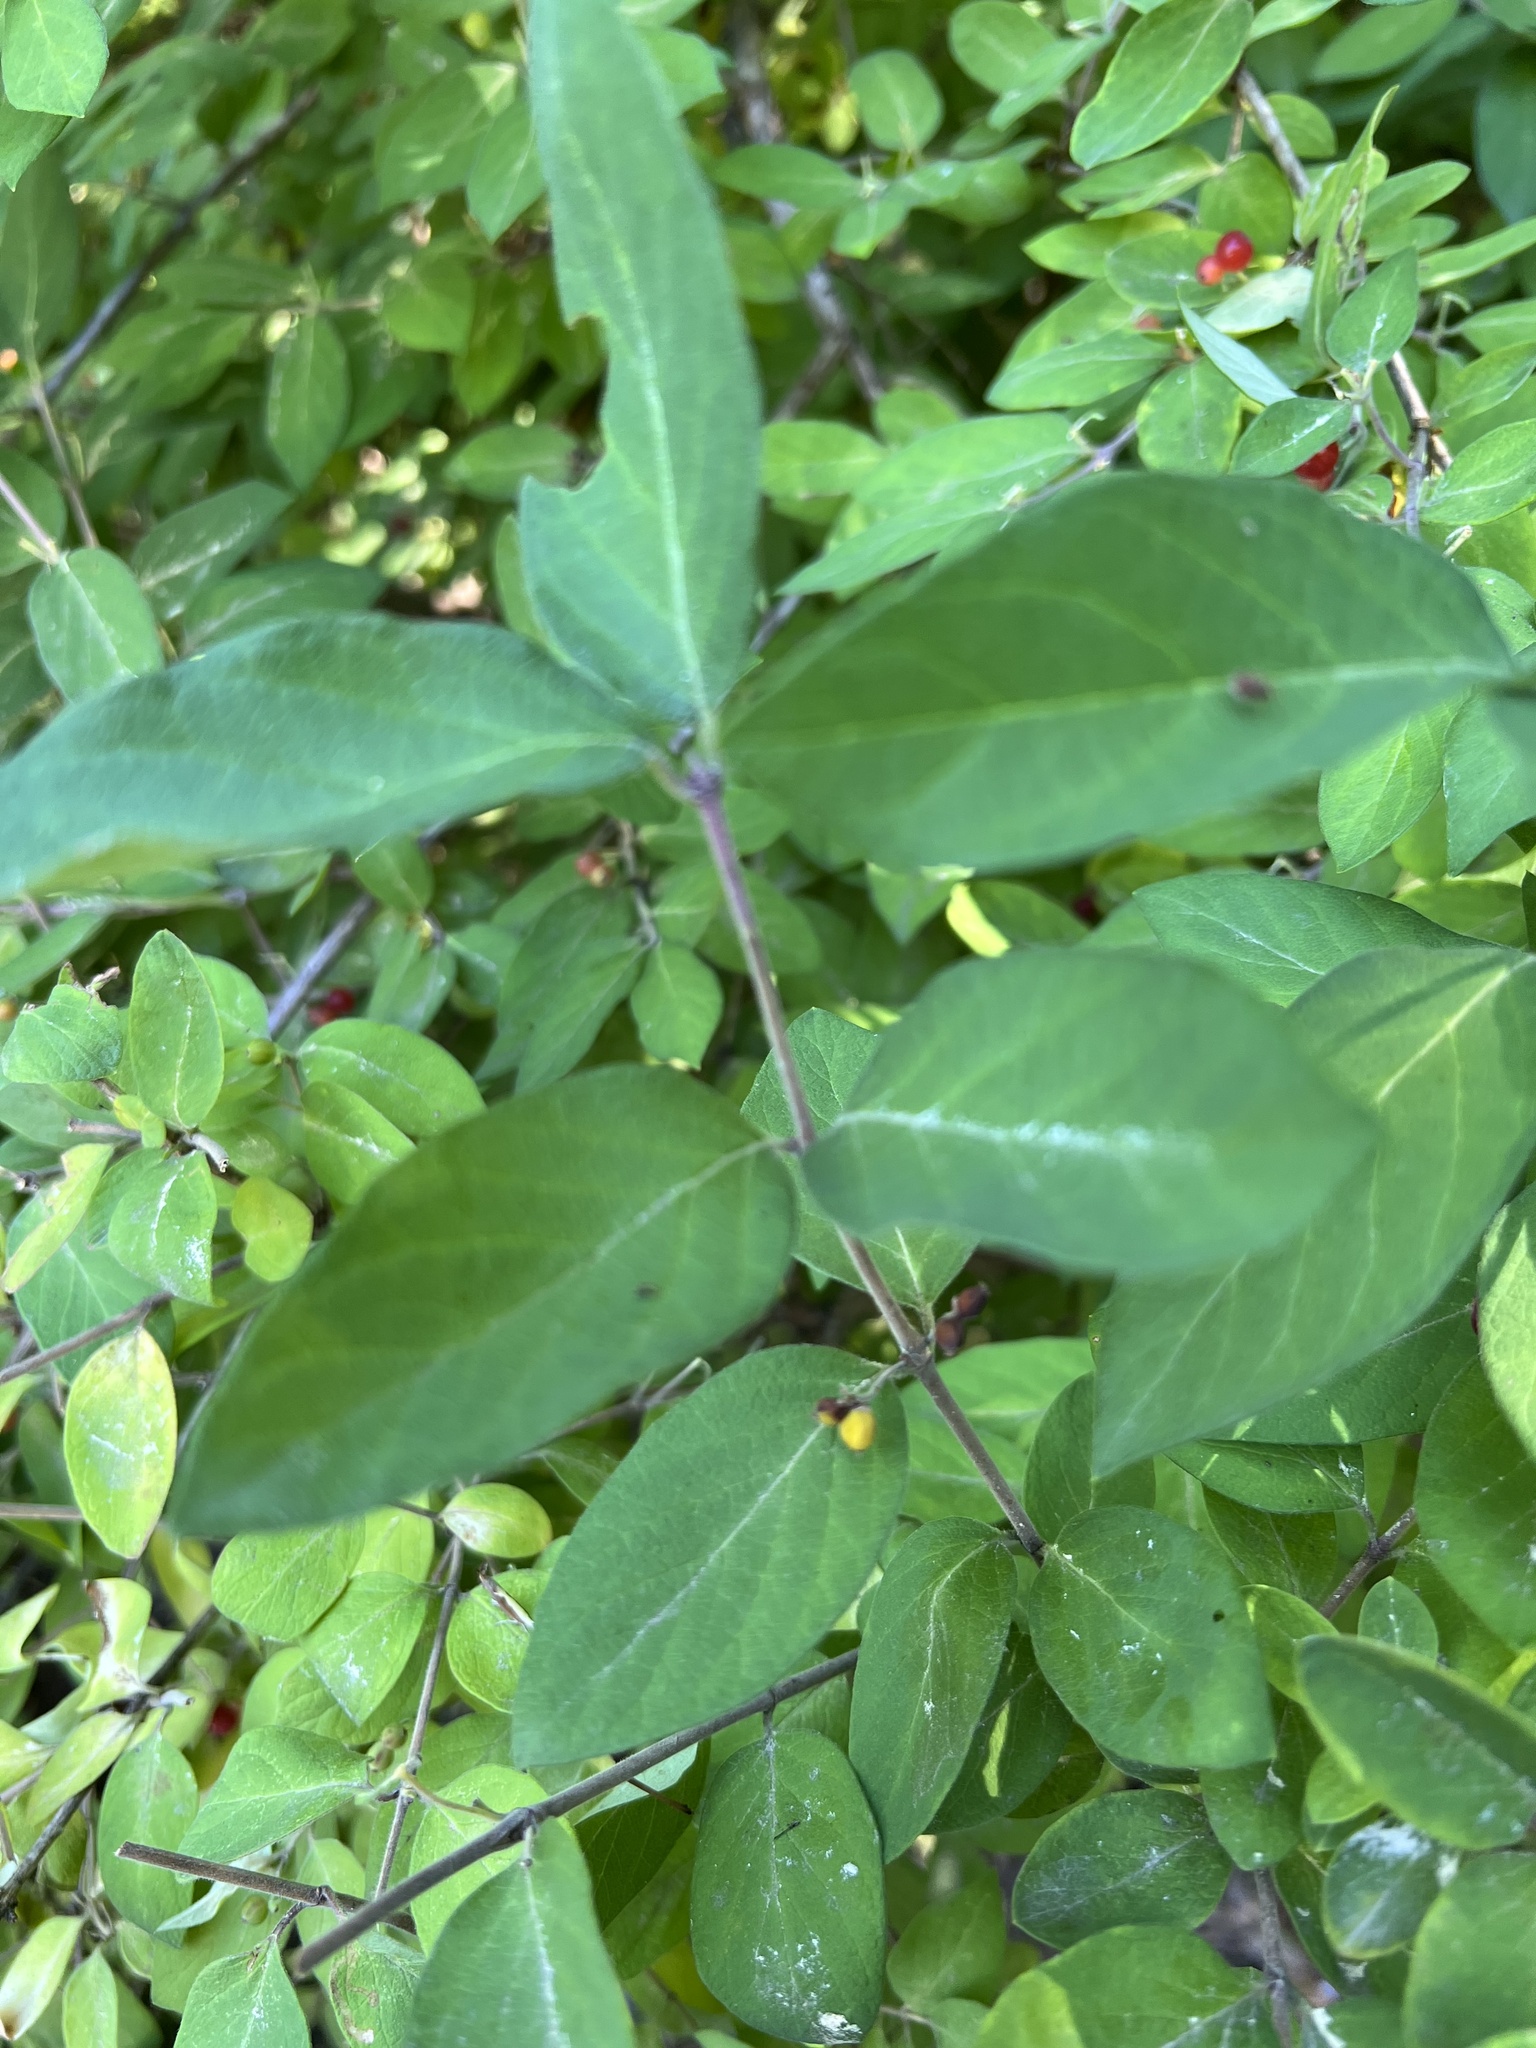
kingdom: Plantae
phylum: Tracheophyta
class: Magnoliopsida
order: Dipsacales
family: Caprifoliaceae
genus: Lonicera
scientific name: Lonicera morrowii
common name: Morrow's honeysuckle
